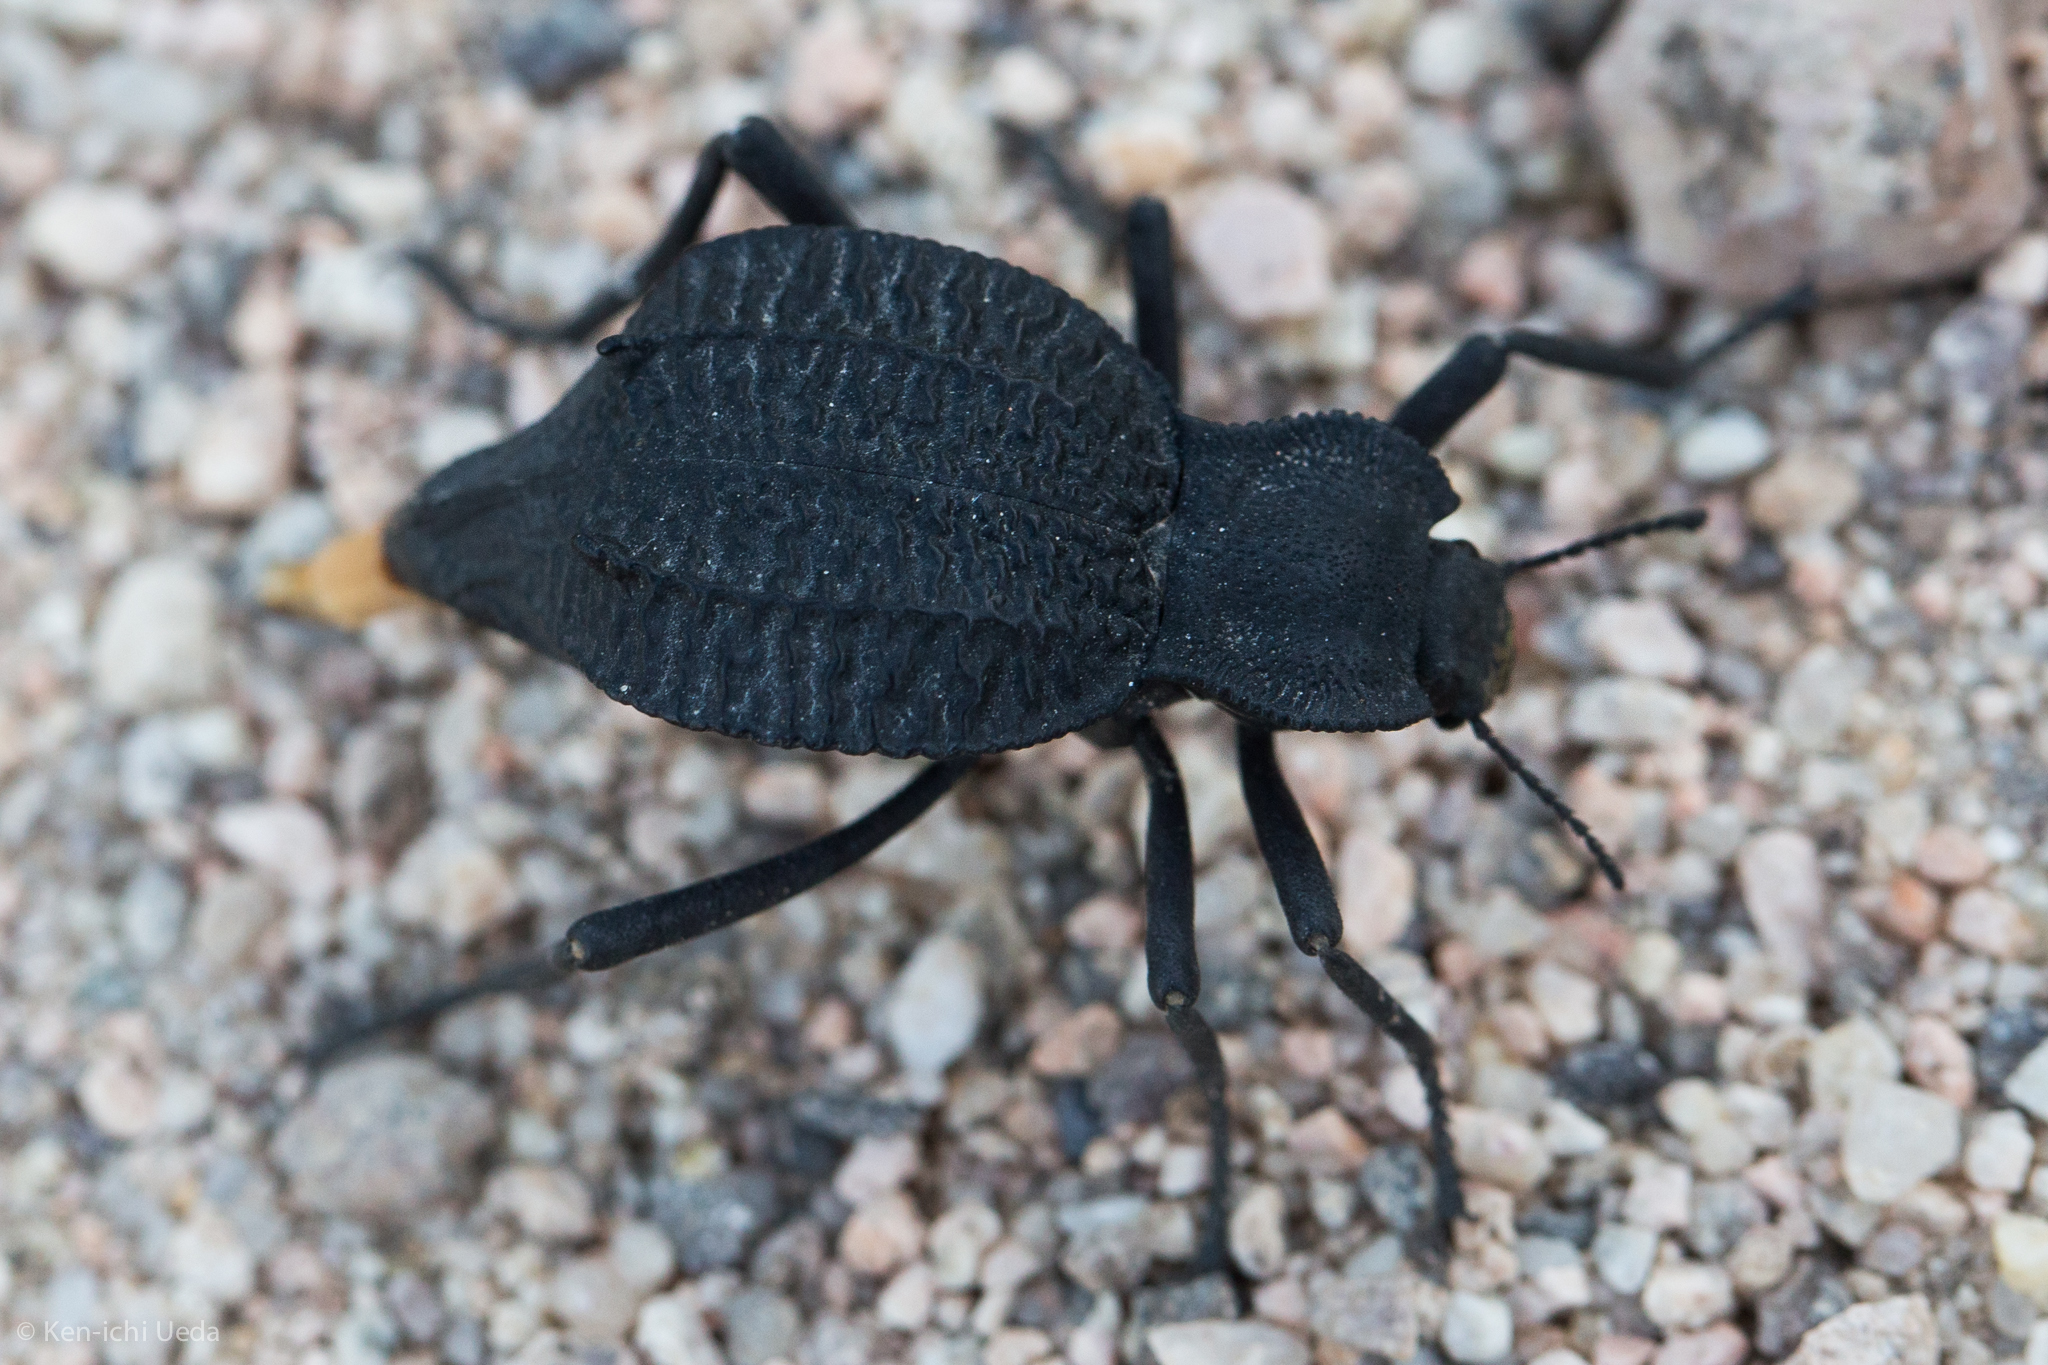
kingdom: Animalia
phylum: Arthropoda
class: Insecta
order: Coleoptera
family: Tenebrionidae
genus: Philolithus
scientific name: Philolithus aegrotus
